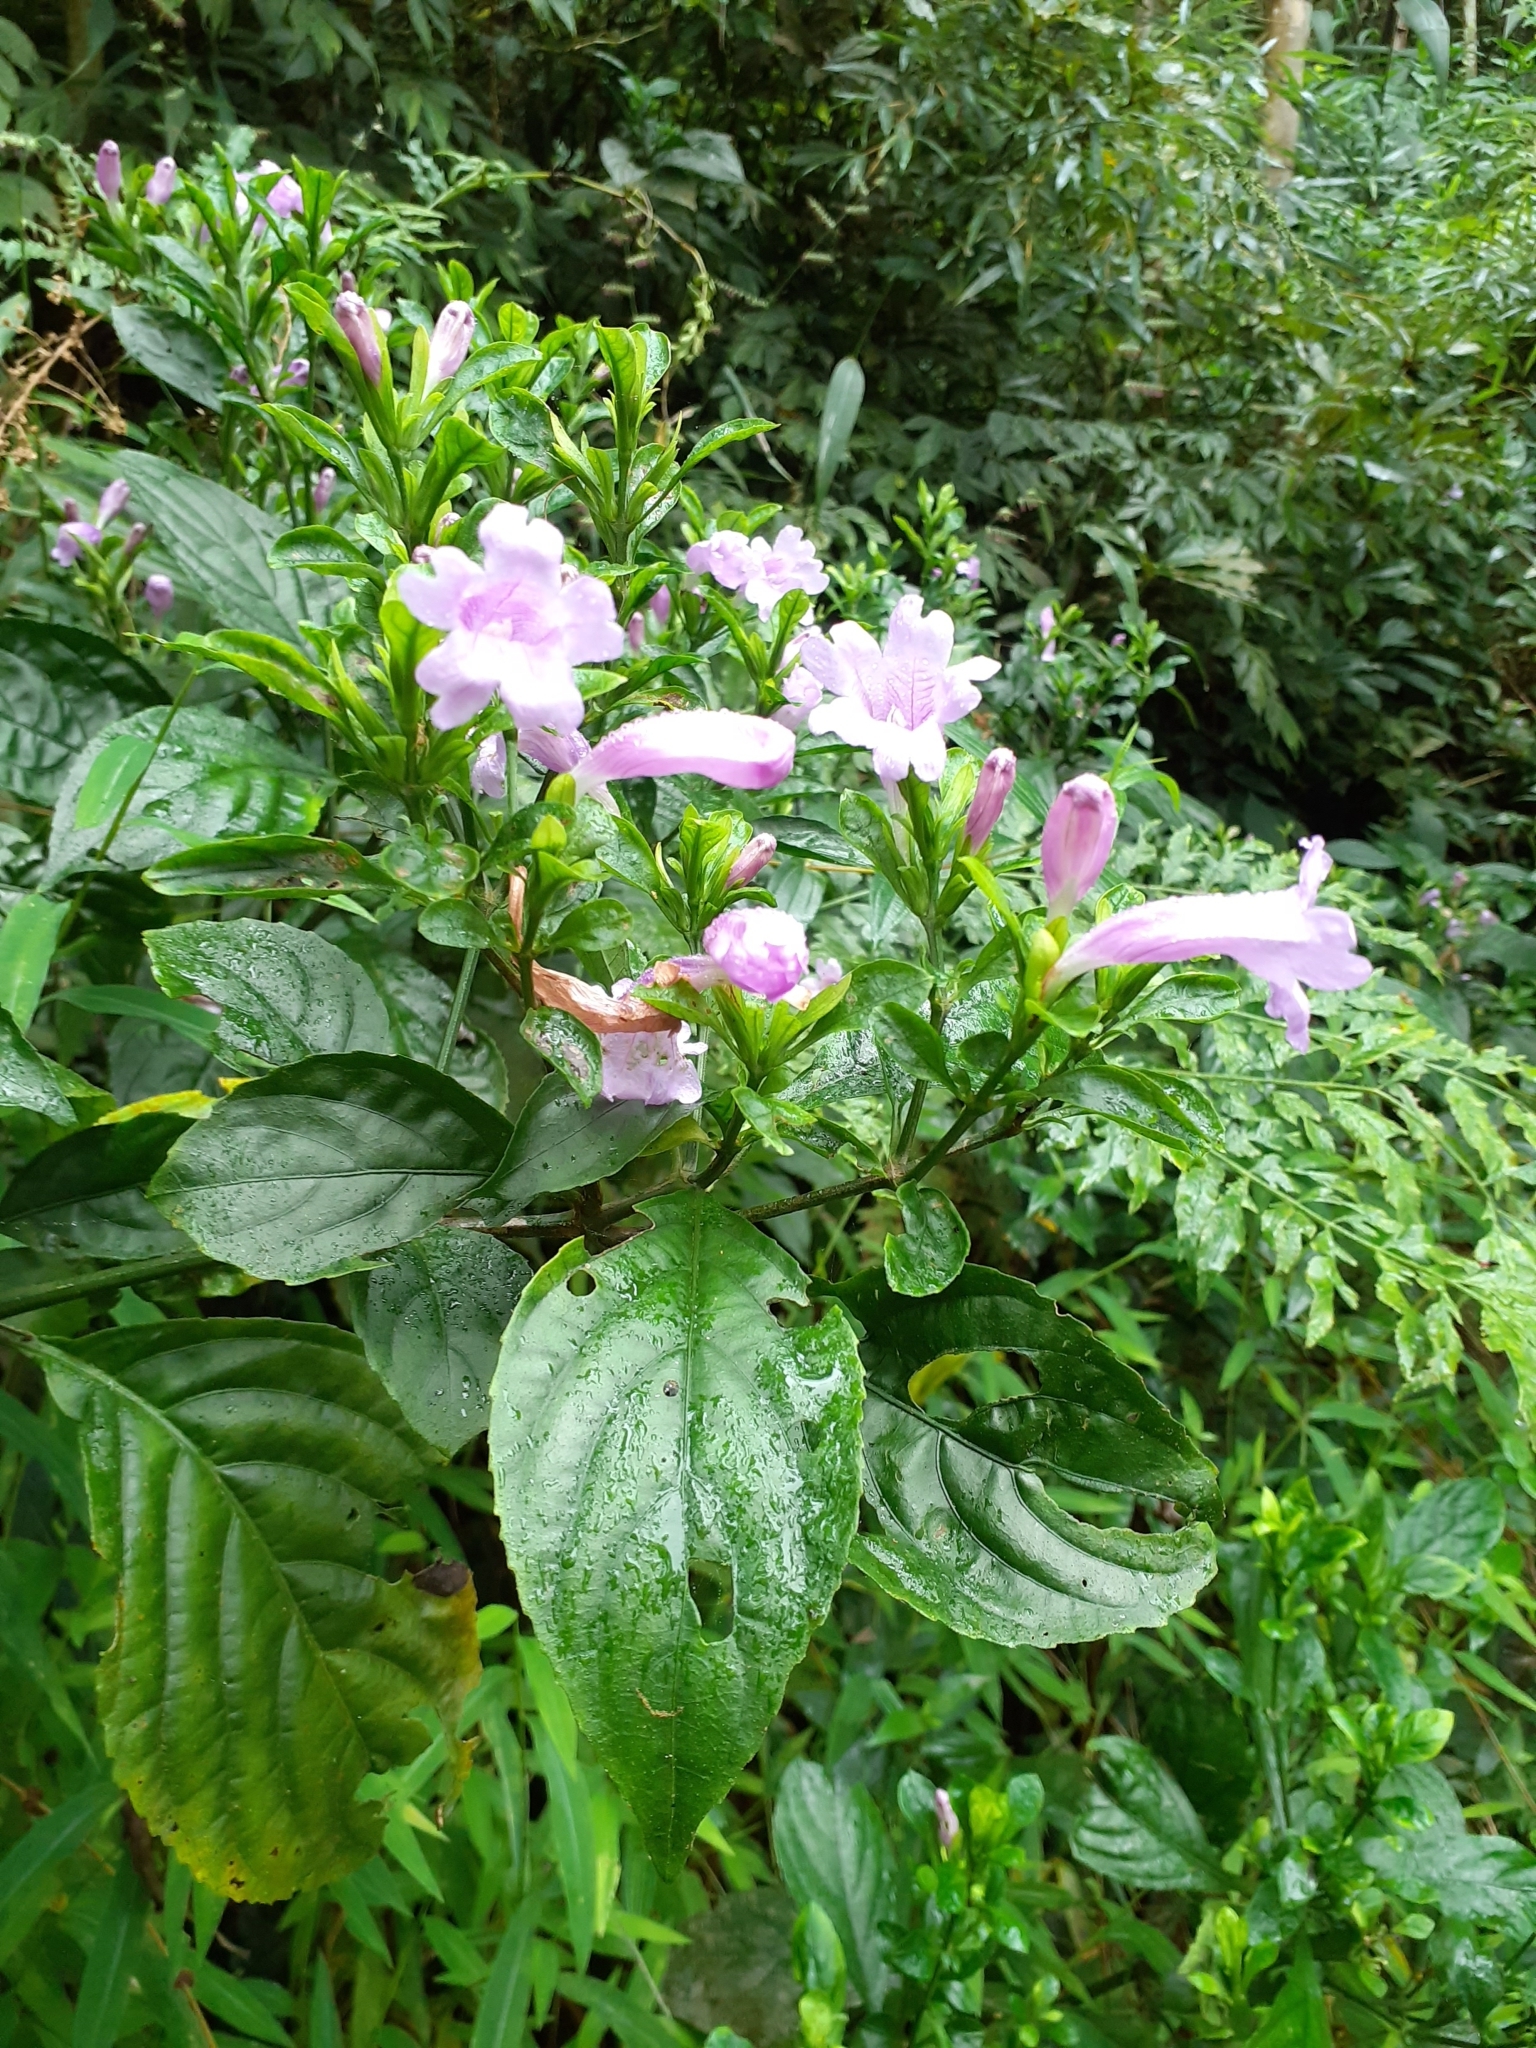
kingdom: Plantae
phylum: Tracheophyta
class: Magnoliopsida
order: Lamiales
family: Acanthaceae
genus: Strobilanthes
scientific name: Strobilanthes cusia
